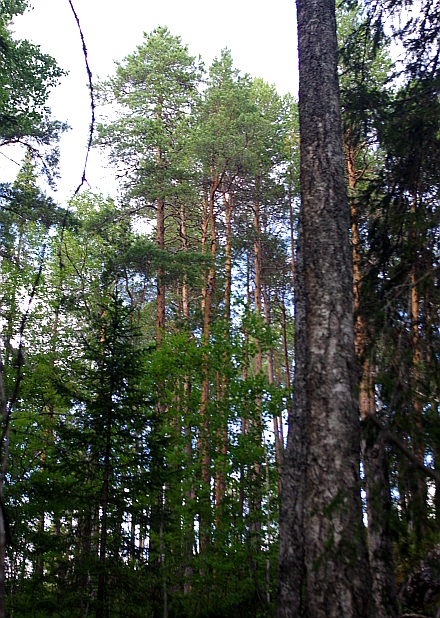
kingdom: Plantae
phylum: Tracheophyta
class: Pinopsida
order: Pinales
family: Pinaceae
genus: Pinus
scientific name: Pinus sylvestris
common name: Scots pine
